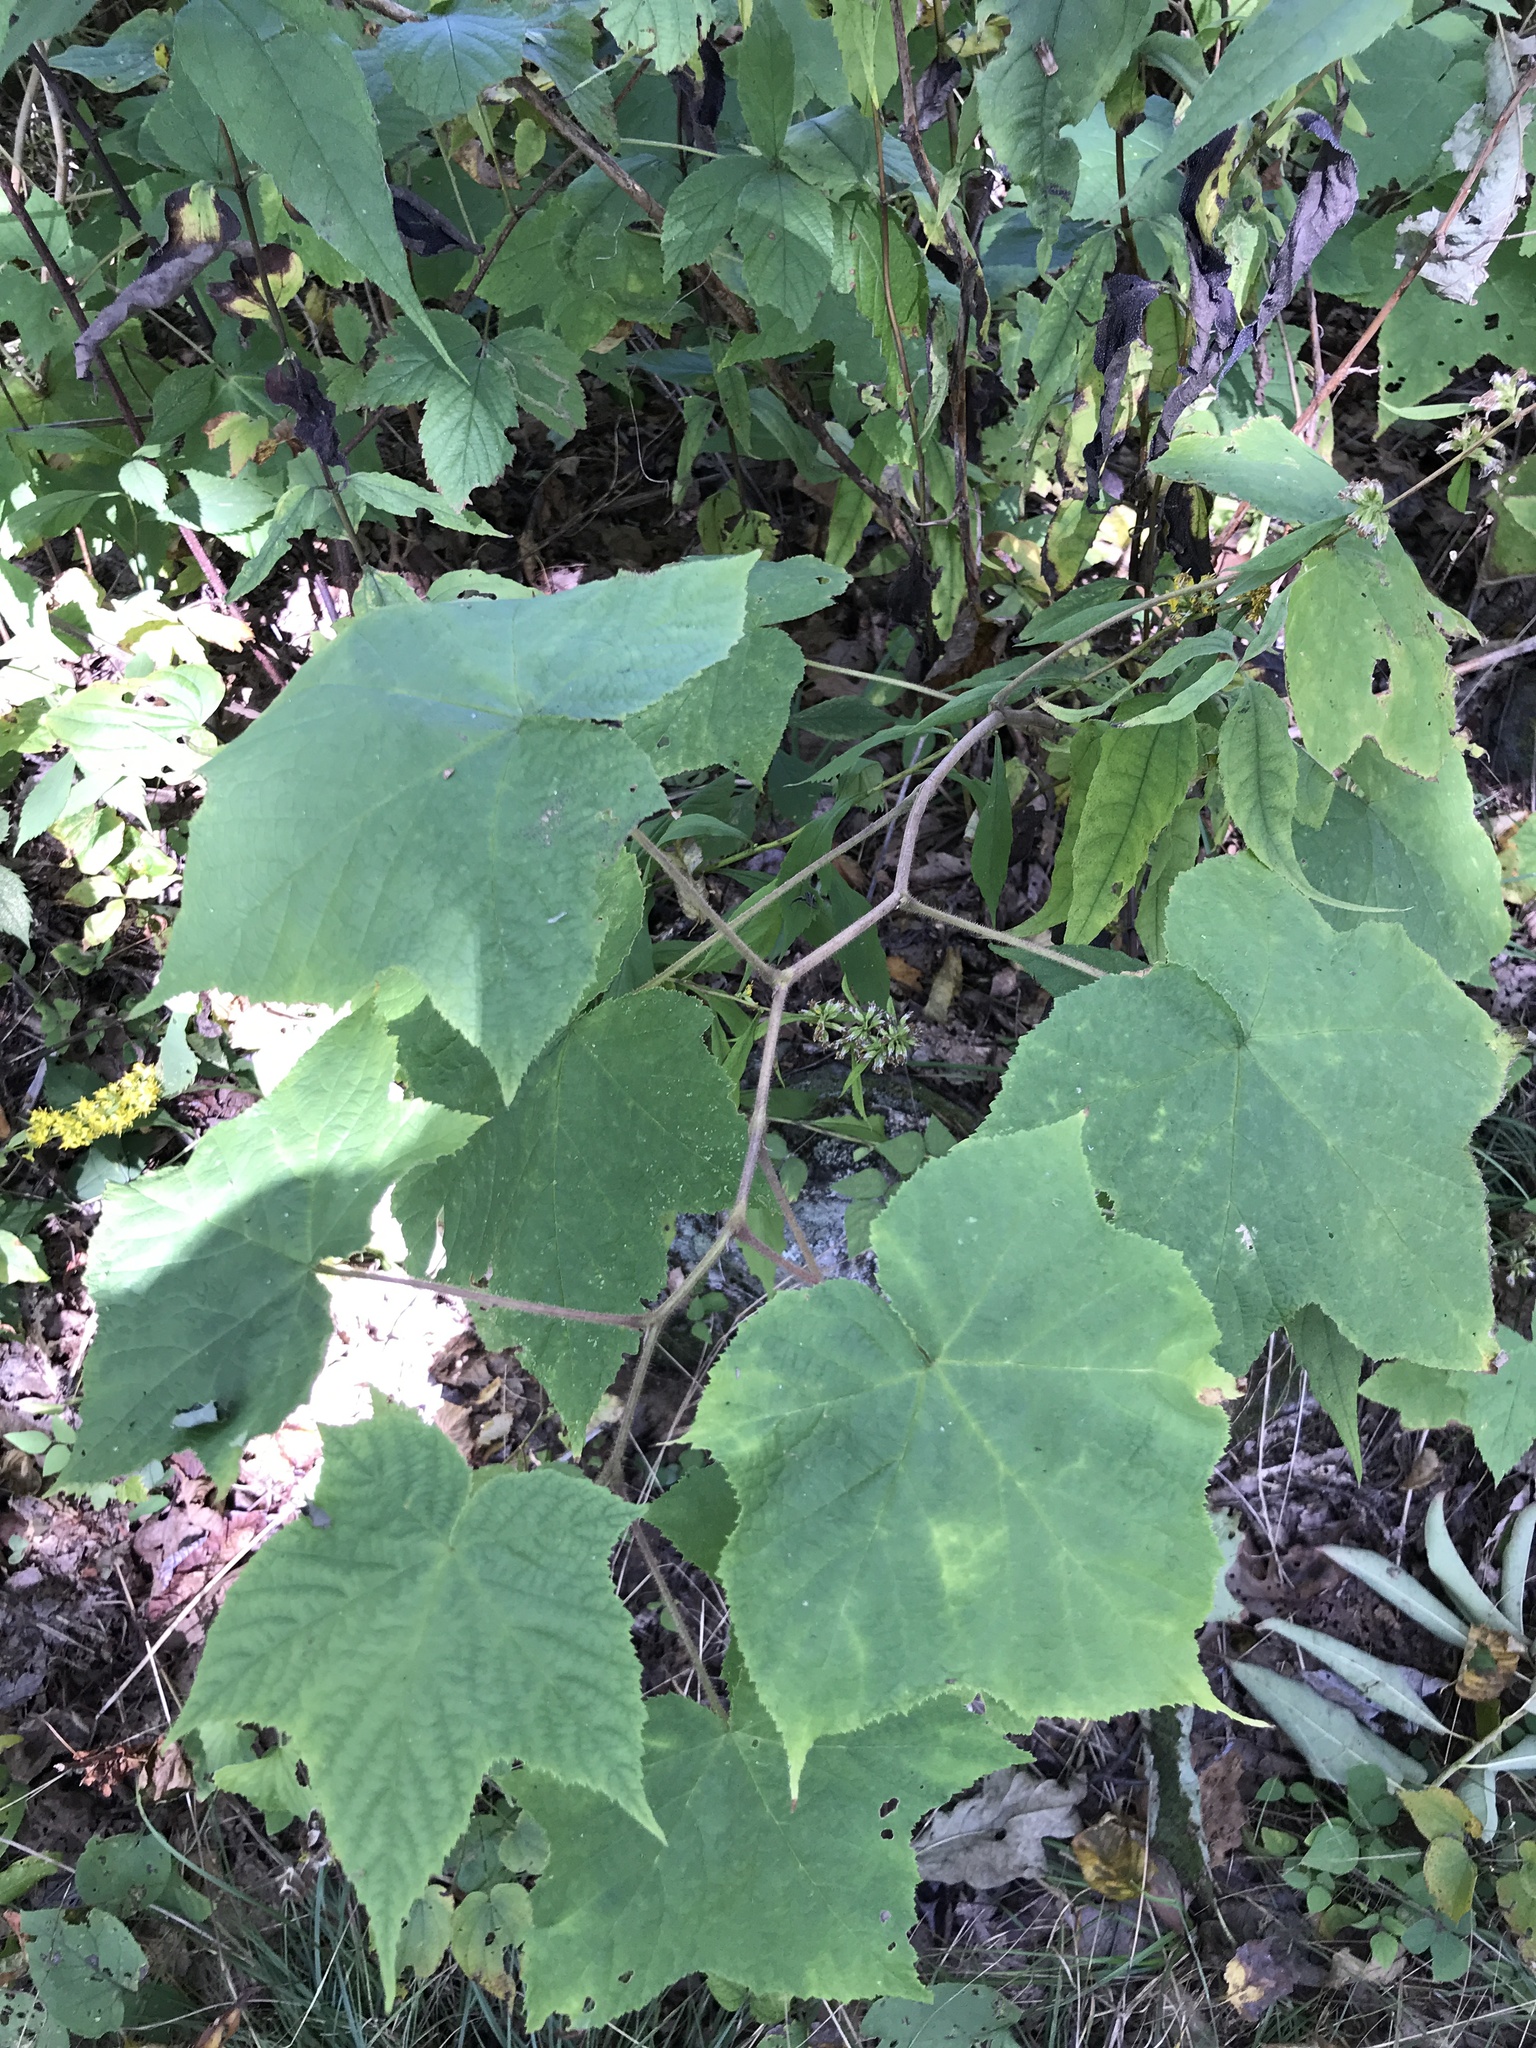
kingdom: Plantae
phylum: Tracheophyta
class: Magnoliopsida
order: Rosales
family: Rosaceae
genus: Rubus
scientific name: Rubus odoratus
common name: Purple-flowered raspberry
